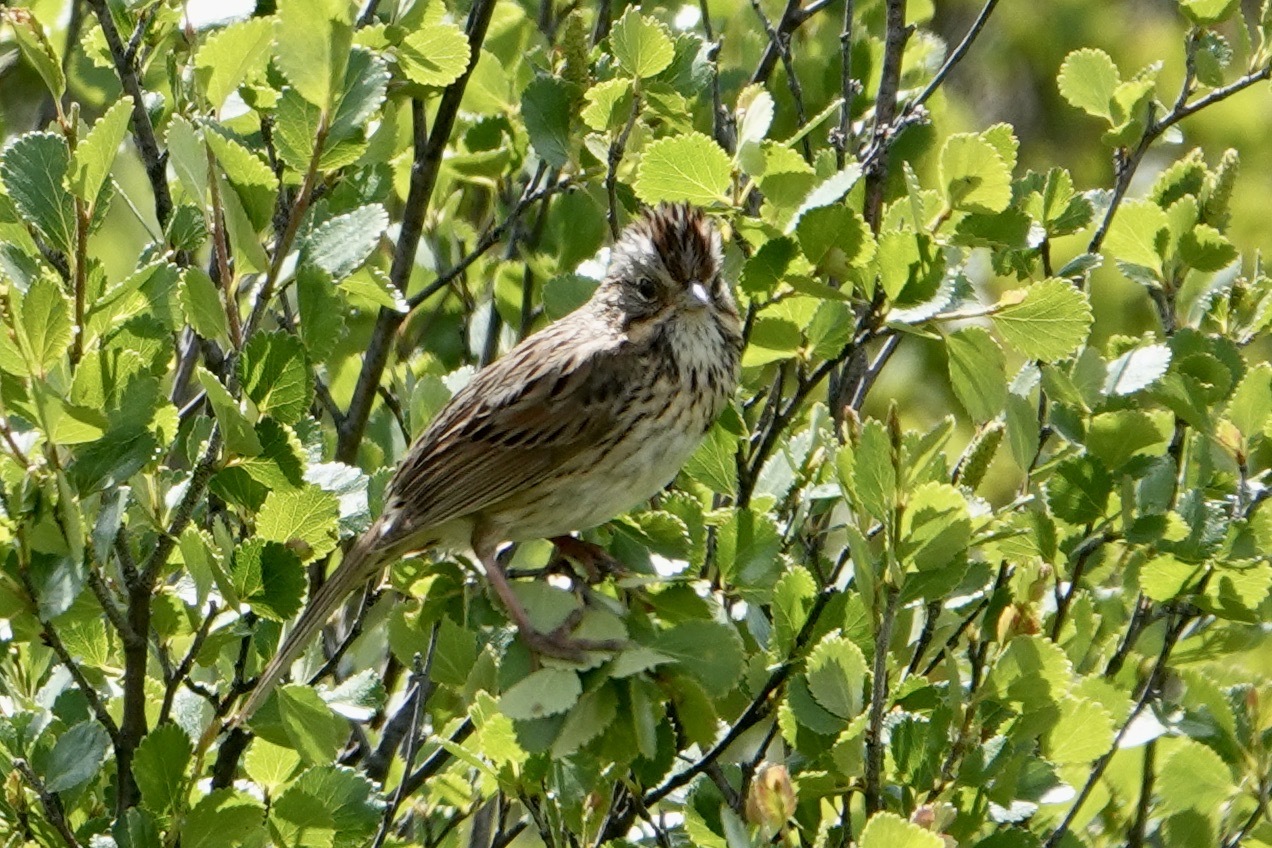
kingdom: Animalia
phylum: Chordata
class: Aves
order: Passeriformes
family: Passerellidae
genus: Melospiza
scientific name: Melospiza lincolnii
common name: Lincoln's sparrow
